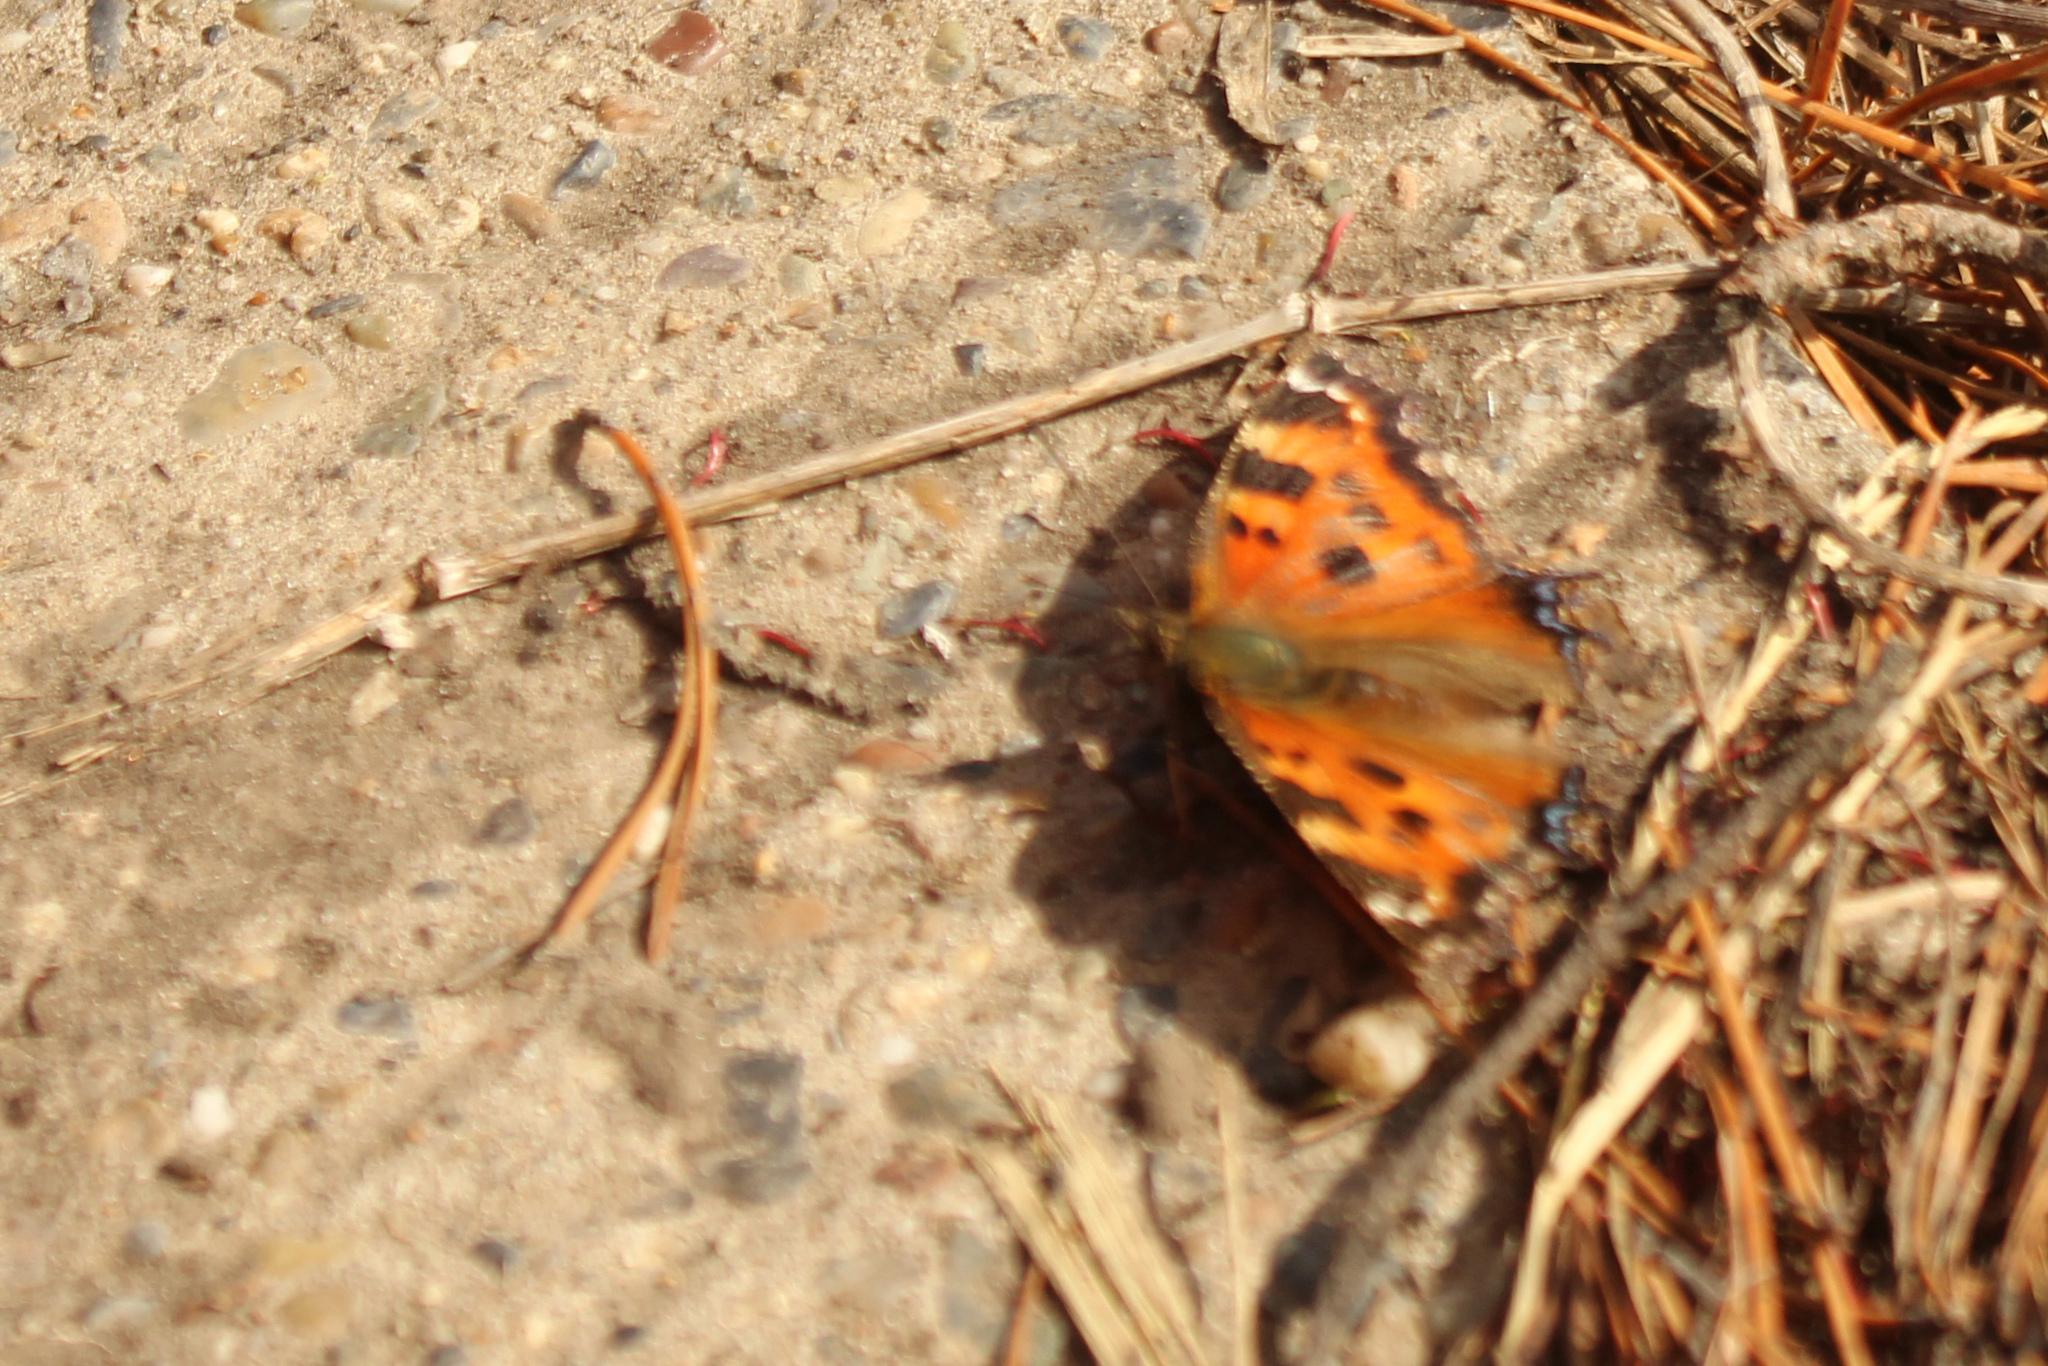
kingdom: Animalia
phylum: Arthropoda
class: Insecta
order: Lepidoptera
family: Nymphalidae
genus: Nymphalis
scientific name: Nymphalis xanthomelas
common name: Scarce tortoiseshell
